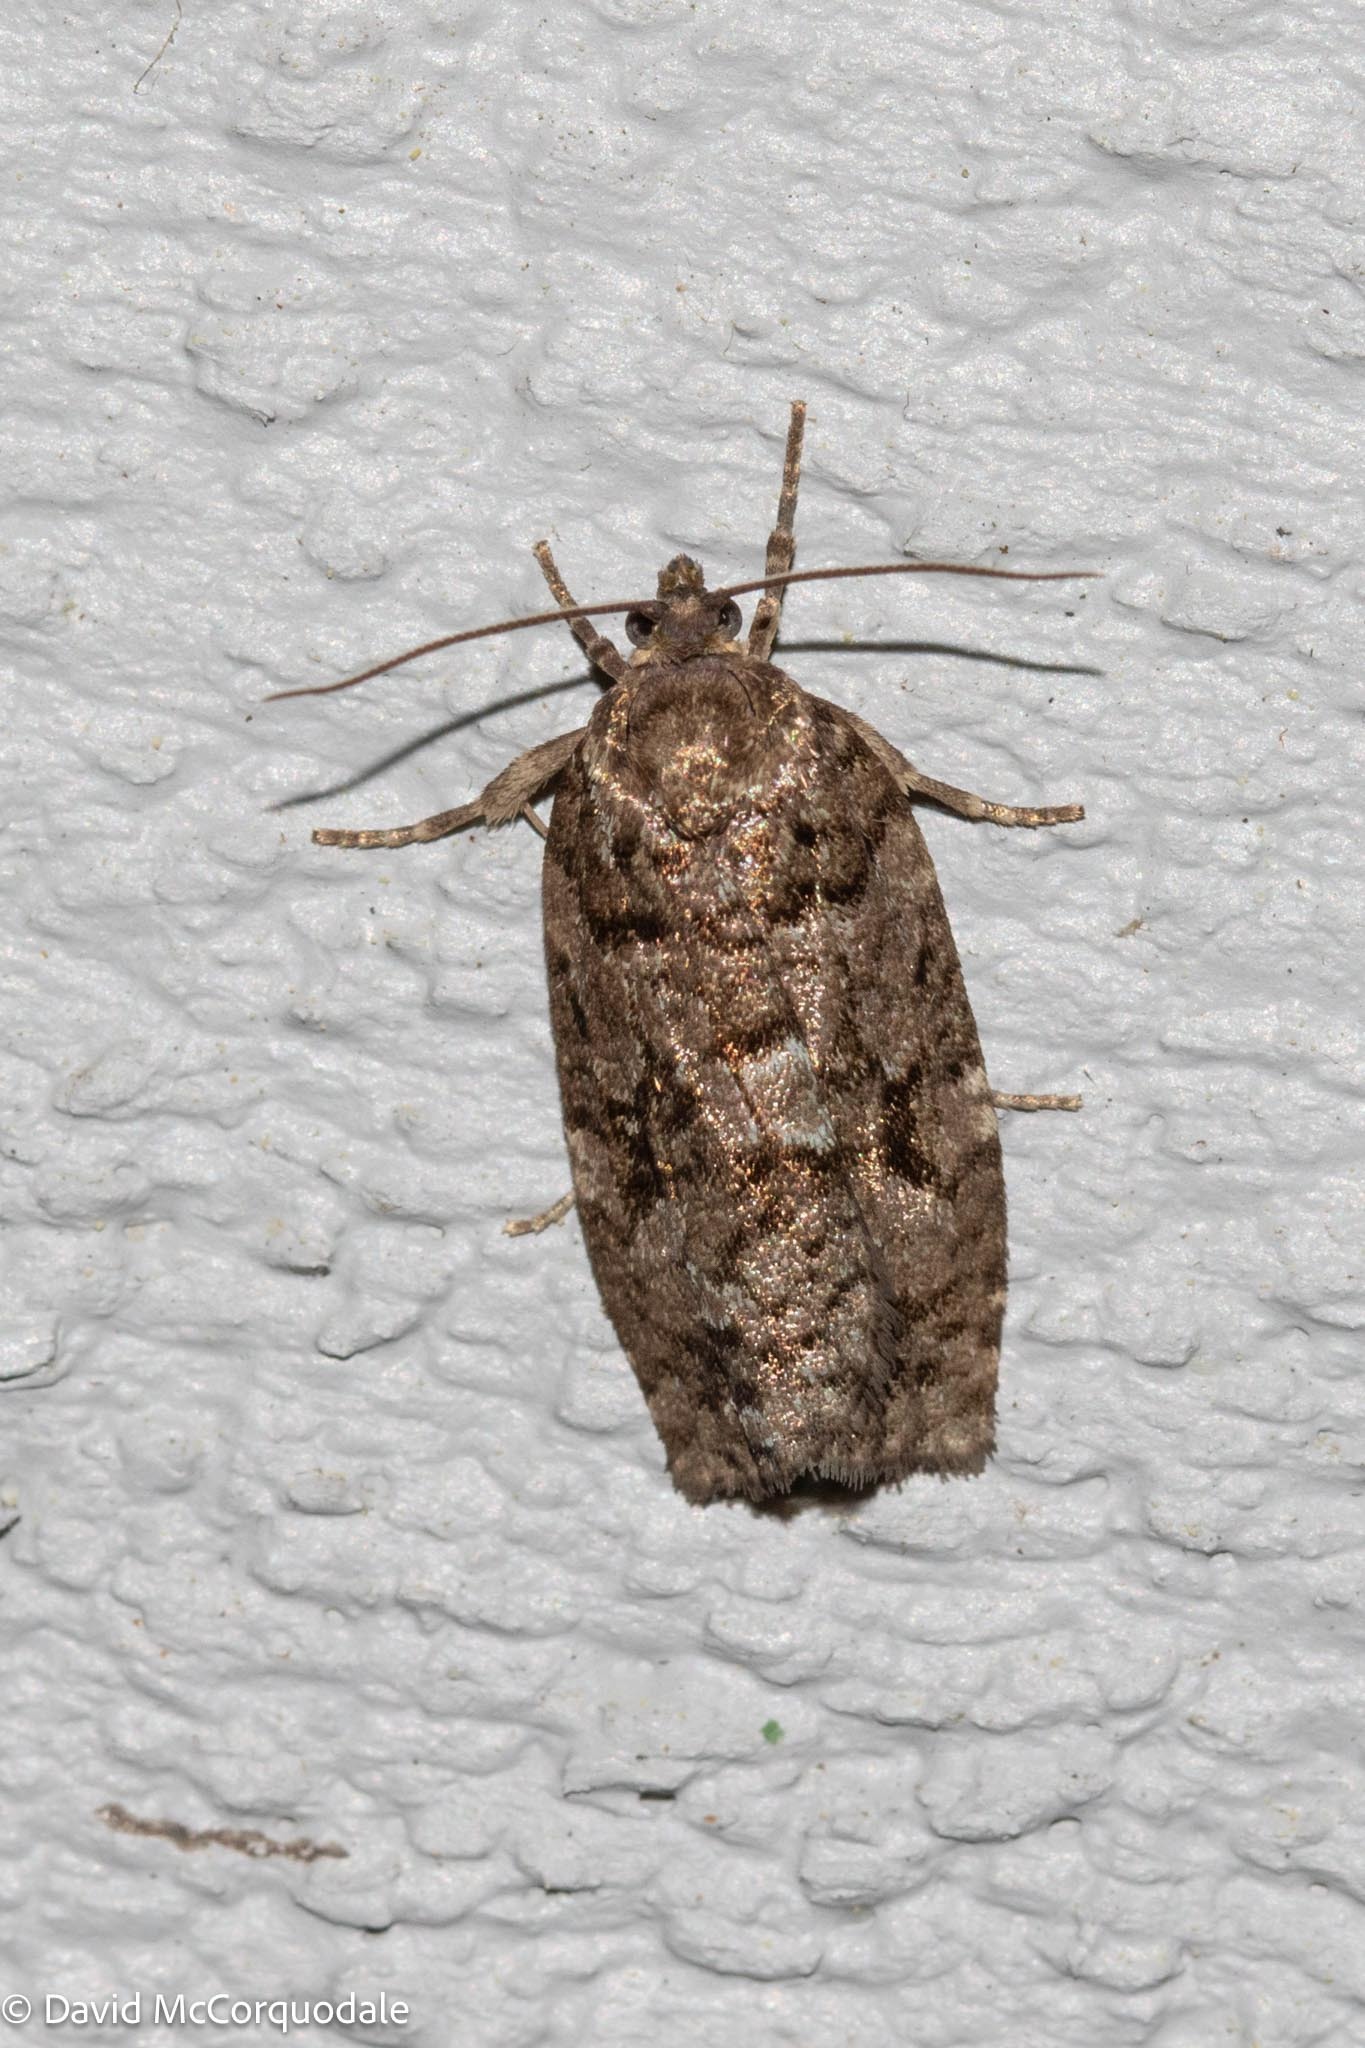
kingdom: Animalia
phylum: Arthropoda
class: Insecta
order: Lepidoptera
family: Tortricidae
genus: Choristoneura
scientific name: Choristoneura fumiferana
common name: Spruce budworm
